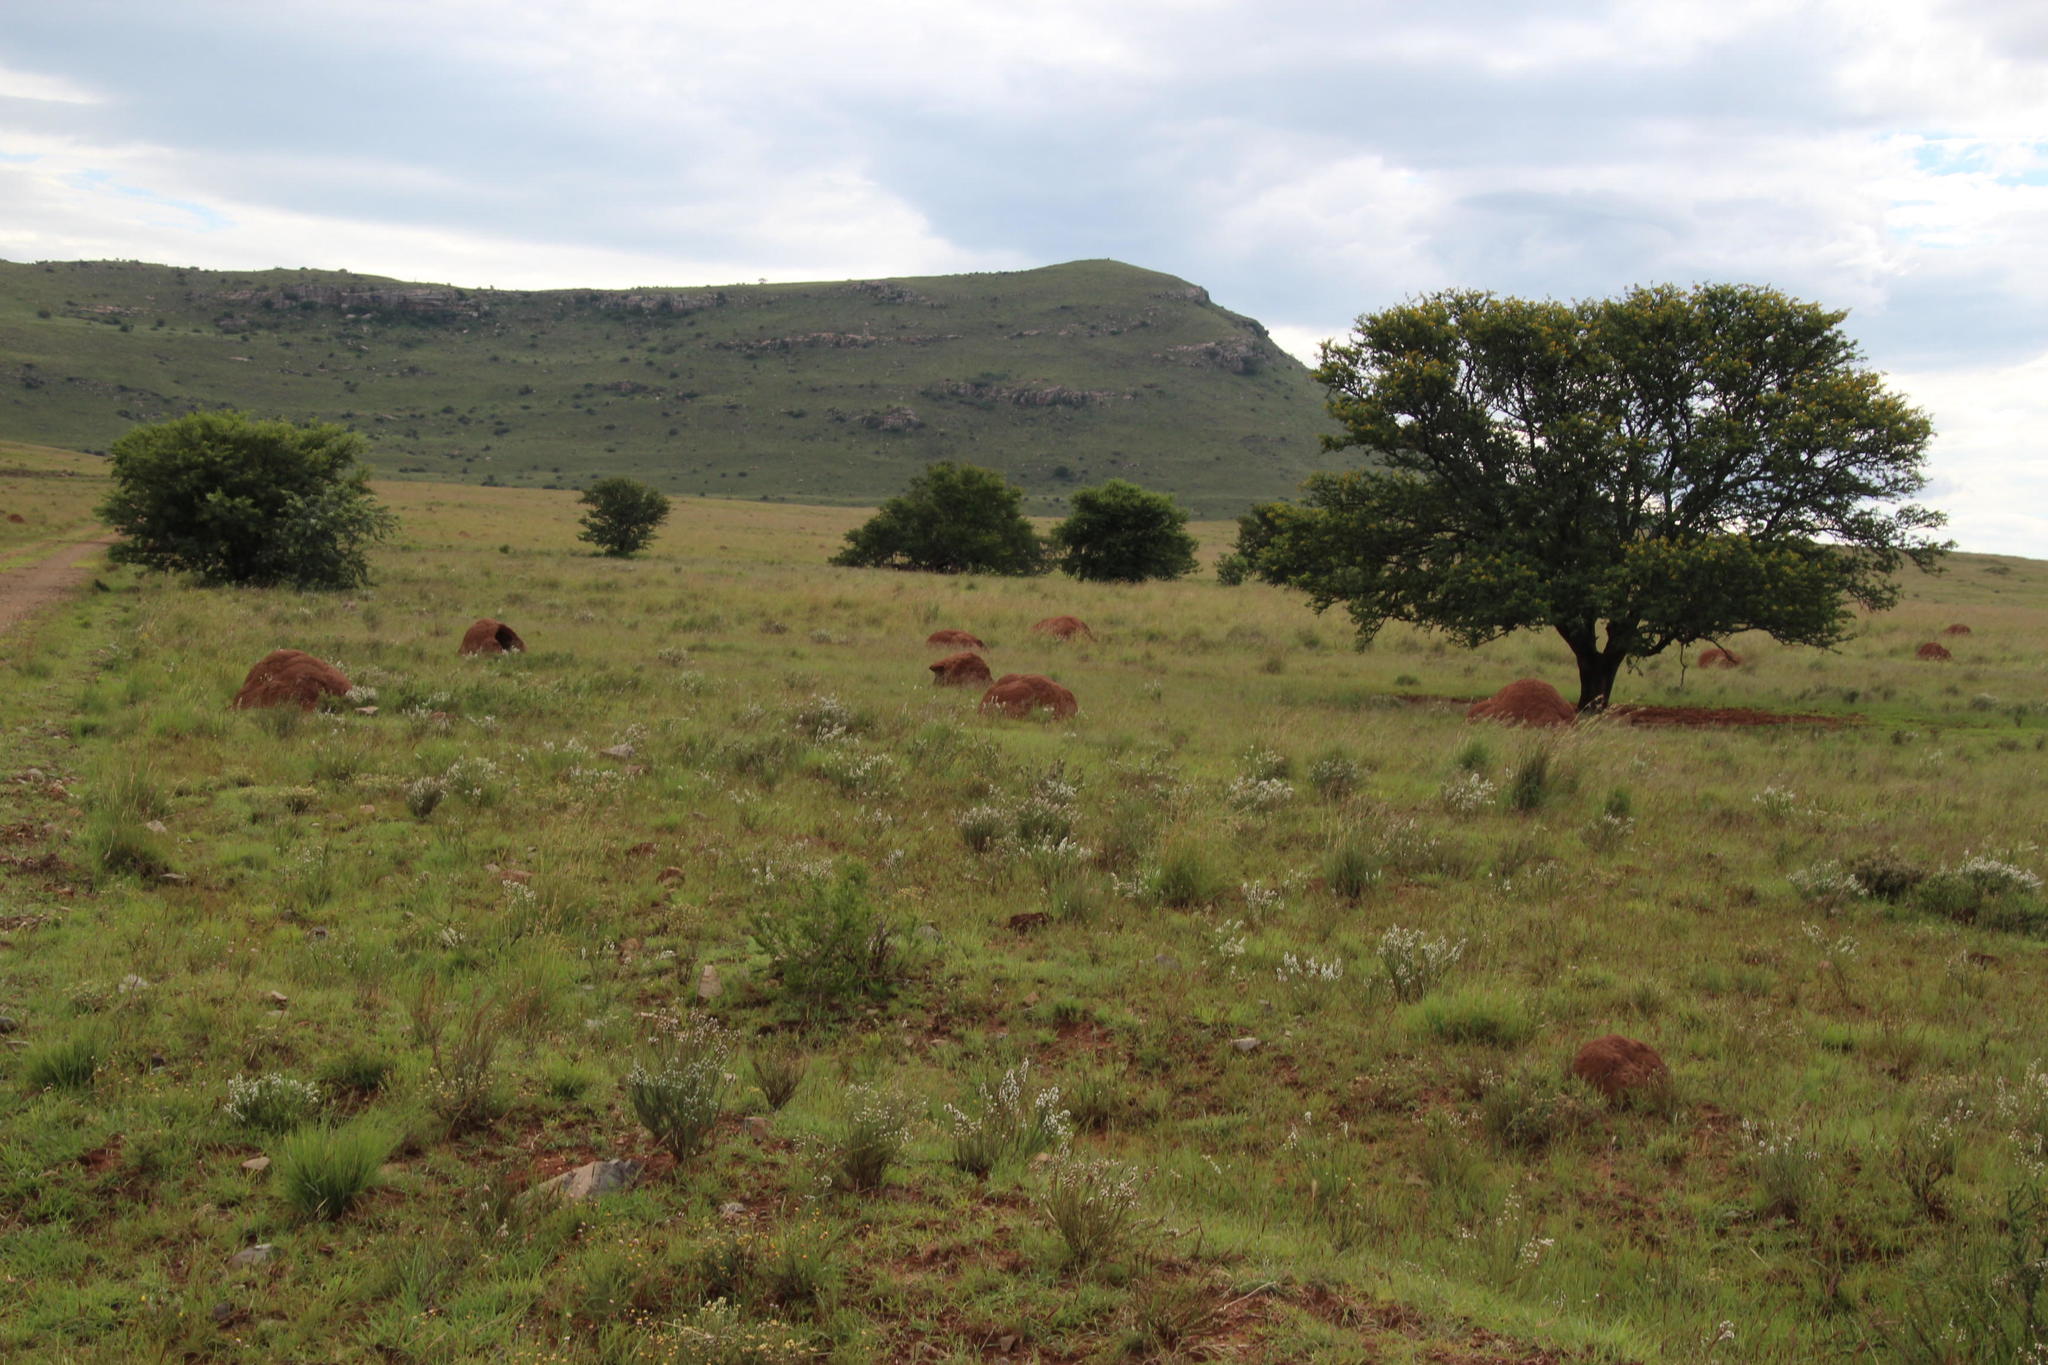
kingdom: Plantae
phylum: Tracheophyta
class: Magnoliopsida
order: Fabales
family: Fabaceae
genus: Vachellia
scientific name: Vachellia karroo
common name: Sweet thorn
